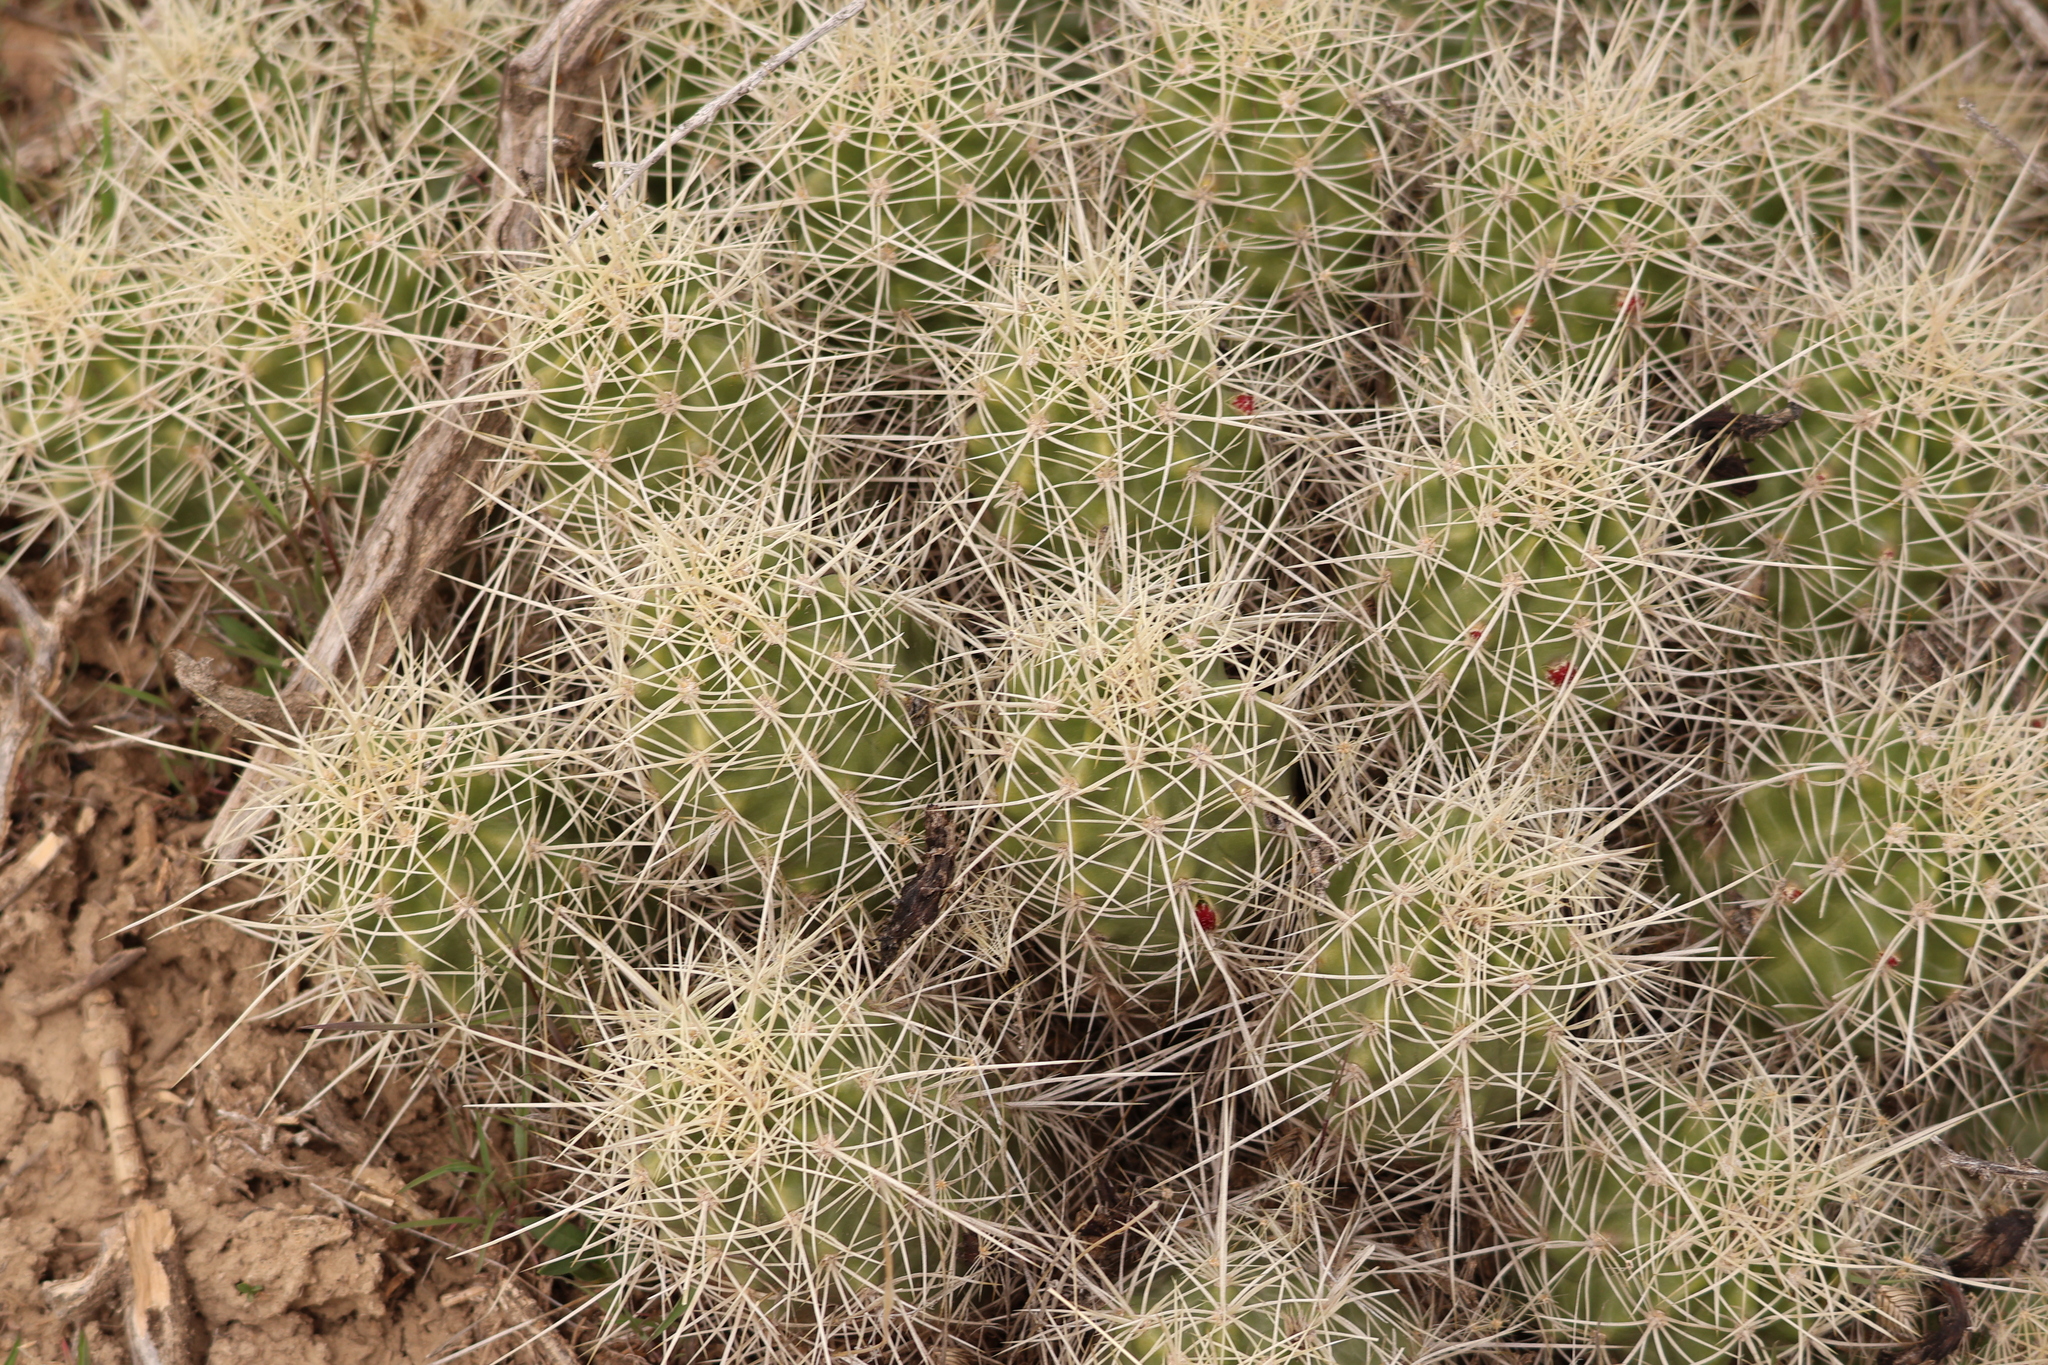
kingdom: Plantae
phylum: Tracheophyta
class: Magnoliopsida
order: Caryophyllales
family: Cactaceae
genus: Echinocereus
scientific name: Echinocereus triglochidiatus
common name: Claretcup hedgehog
